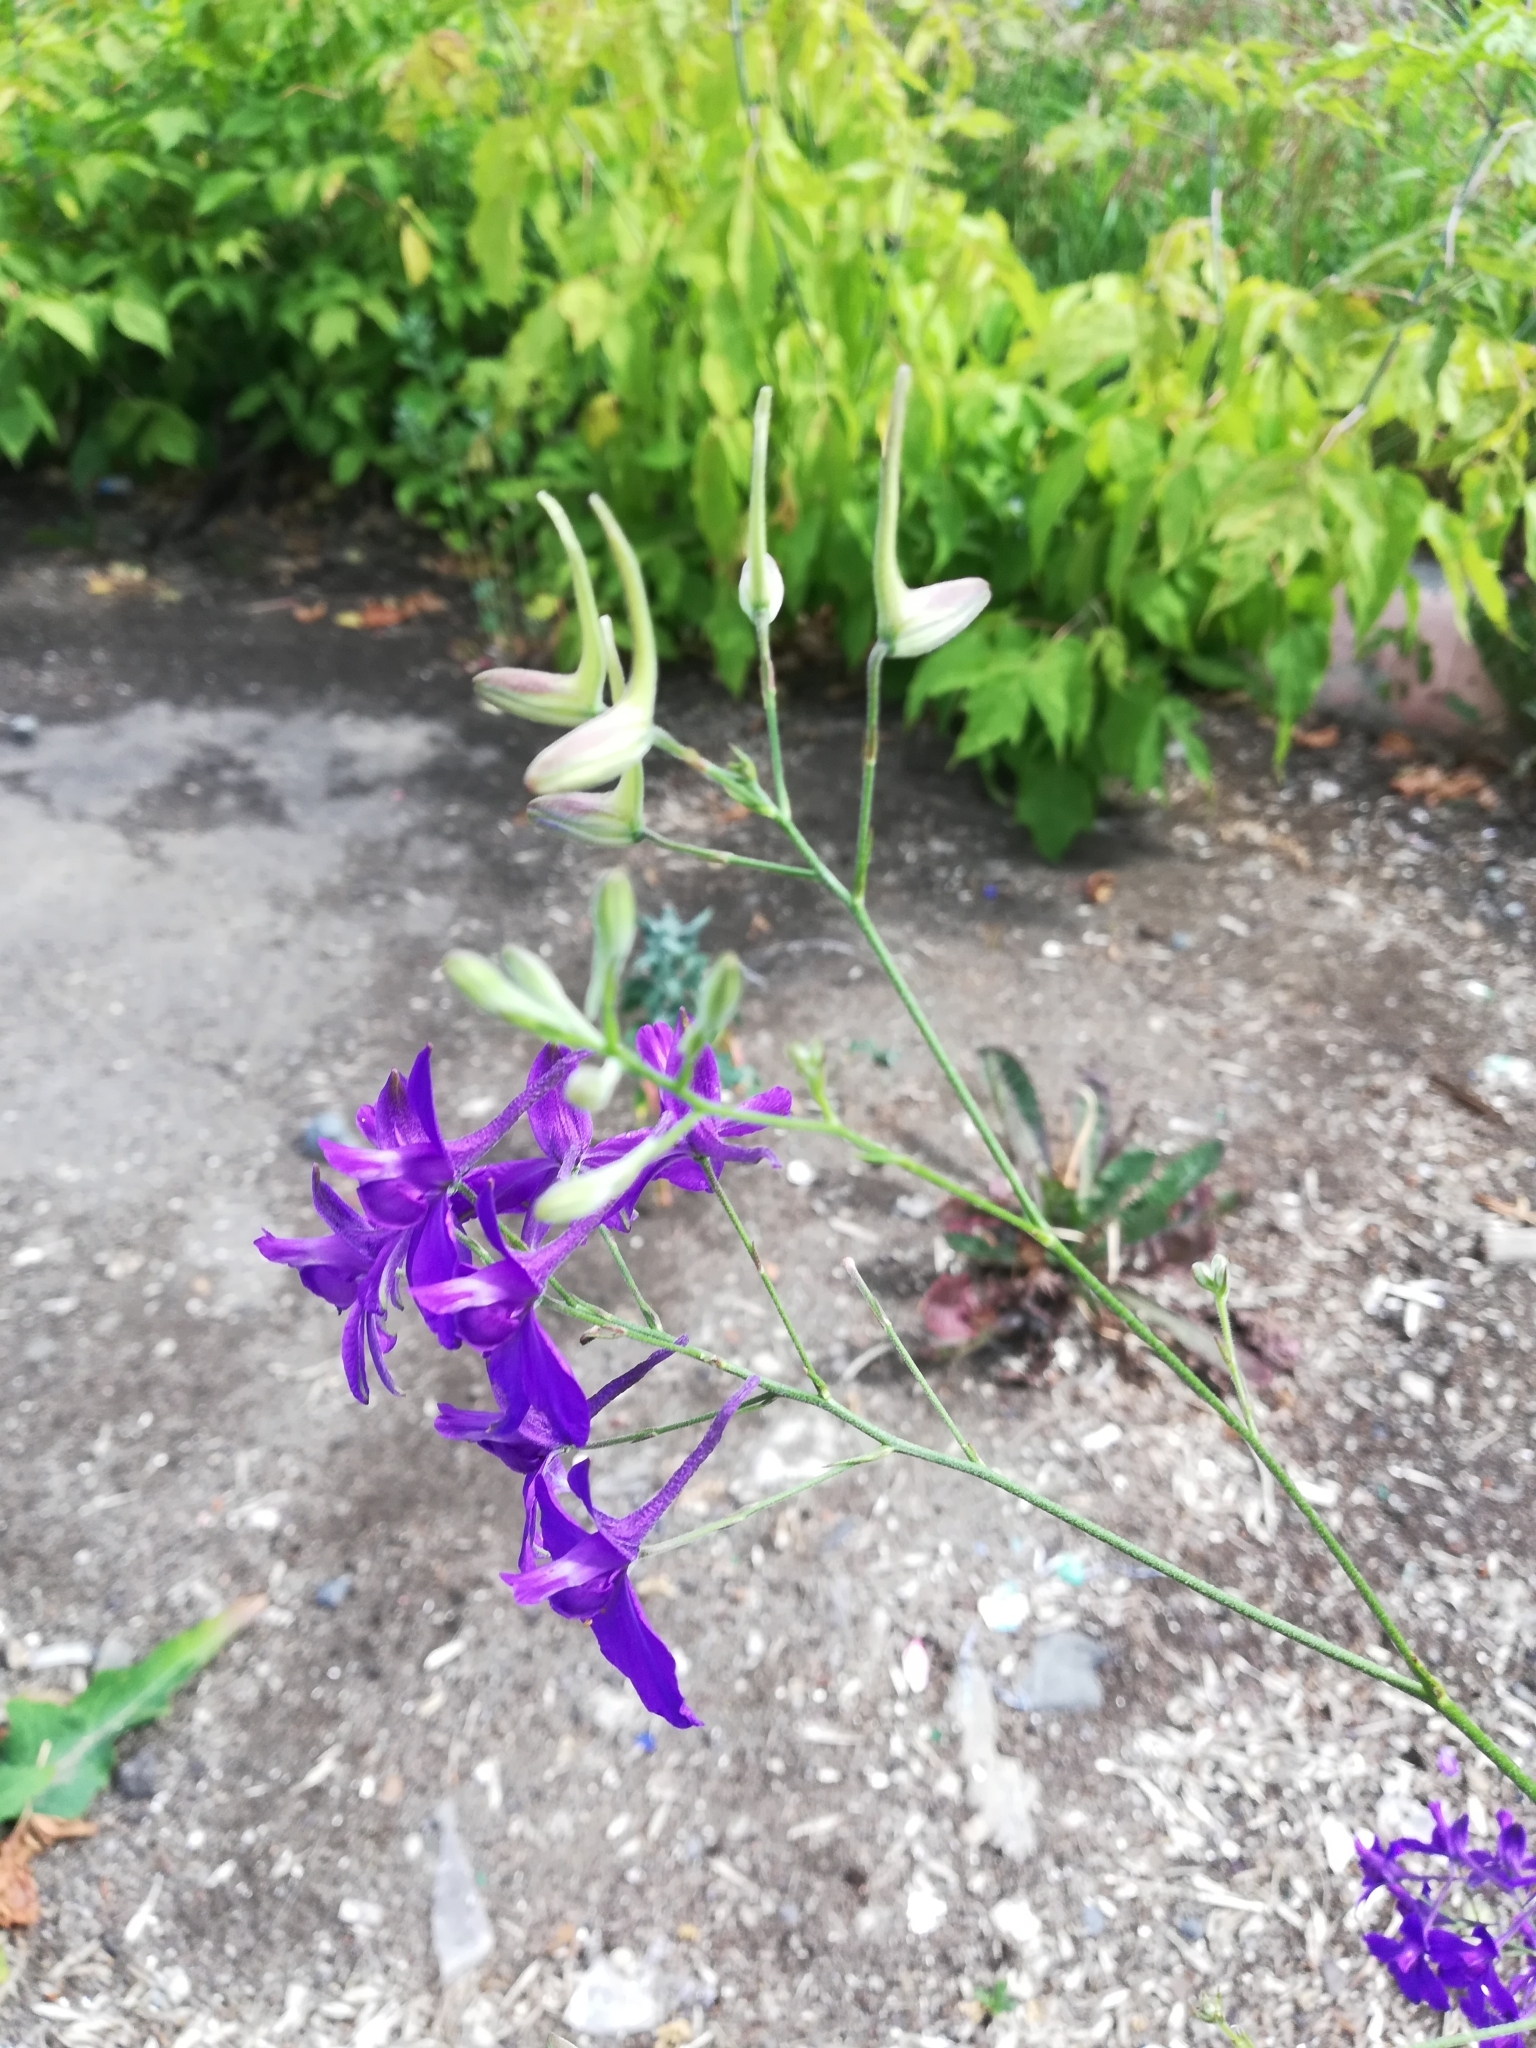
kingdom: Plantae
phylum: Tracheophyta
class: Magnoliopsida
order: Ranunculales
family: Ranunculaceae
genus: Delphinium
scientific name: Delphinium consolida
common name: Branching larkspur
